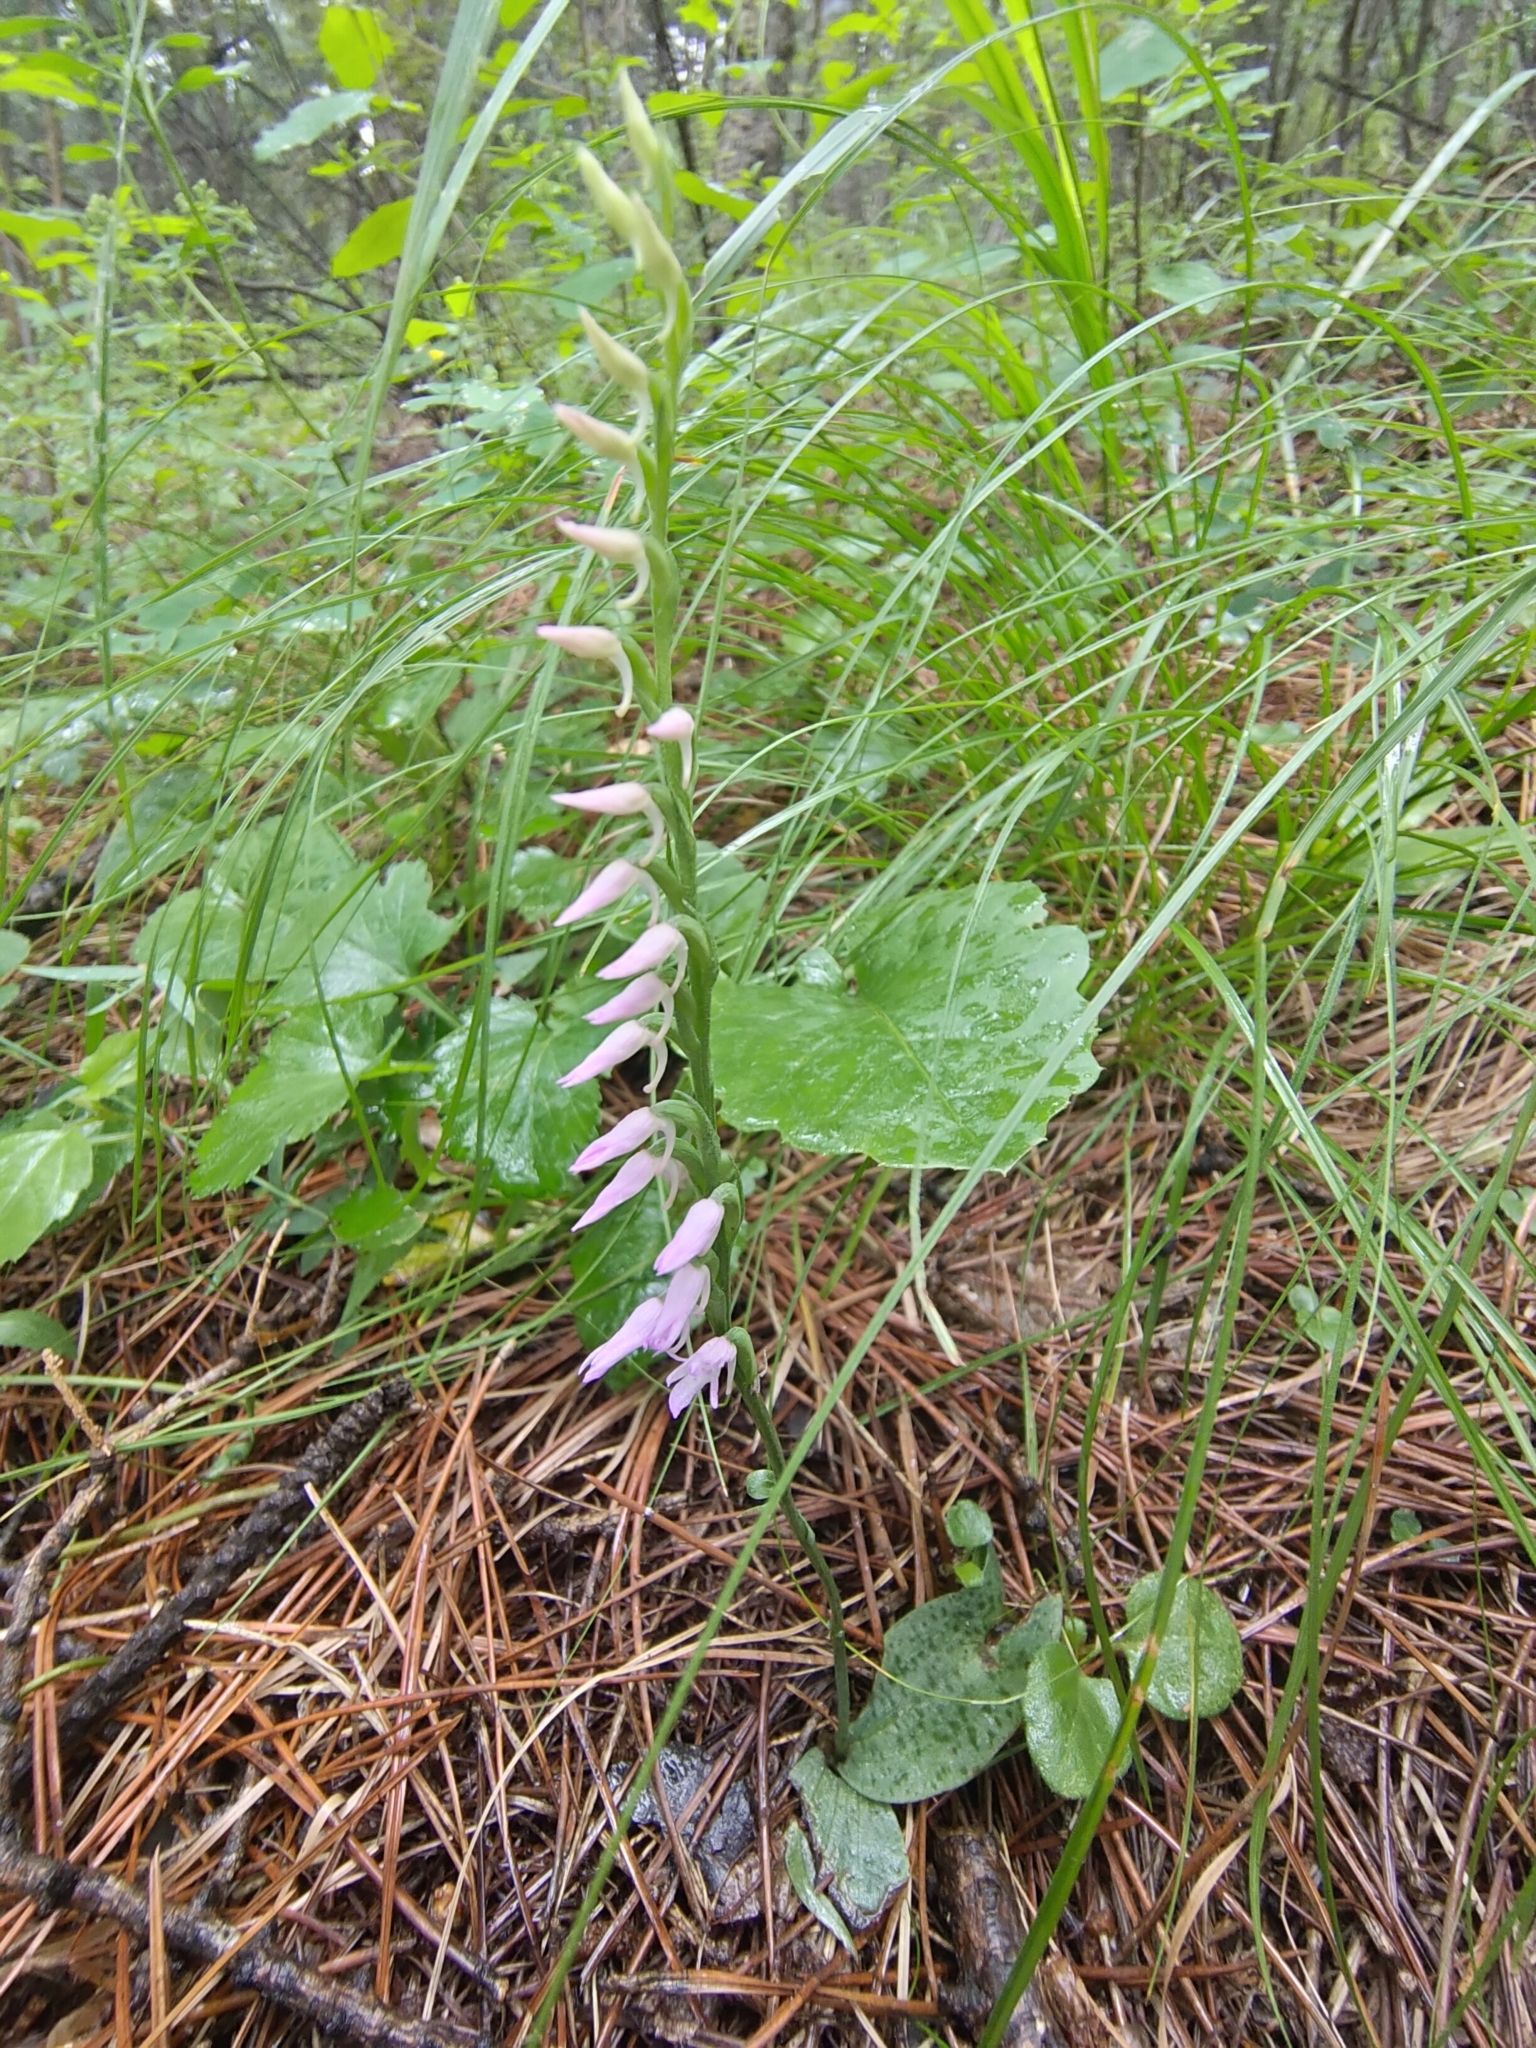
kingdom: Plantae
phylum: Tracheophyta
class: Liliopsida
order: Asparagales
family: Orchidaceae
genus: Hemipilia
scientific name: Hemipilia cucullata
